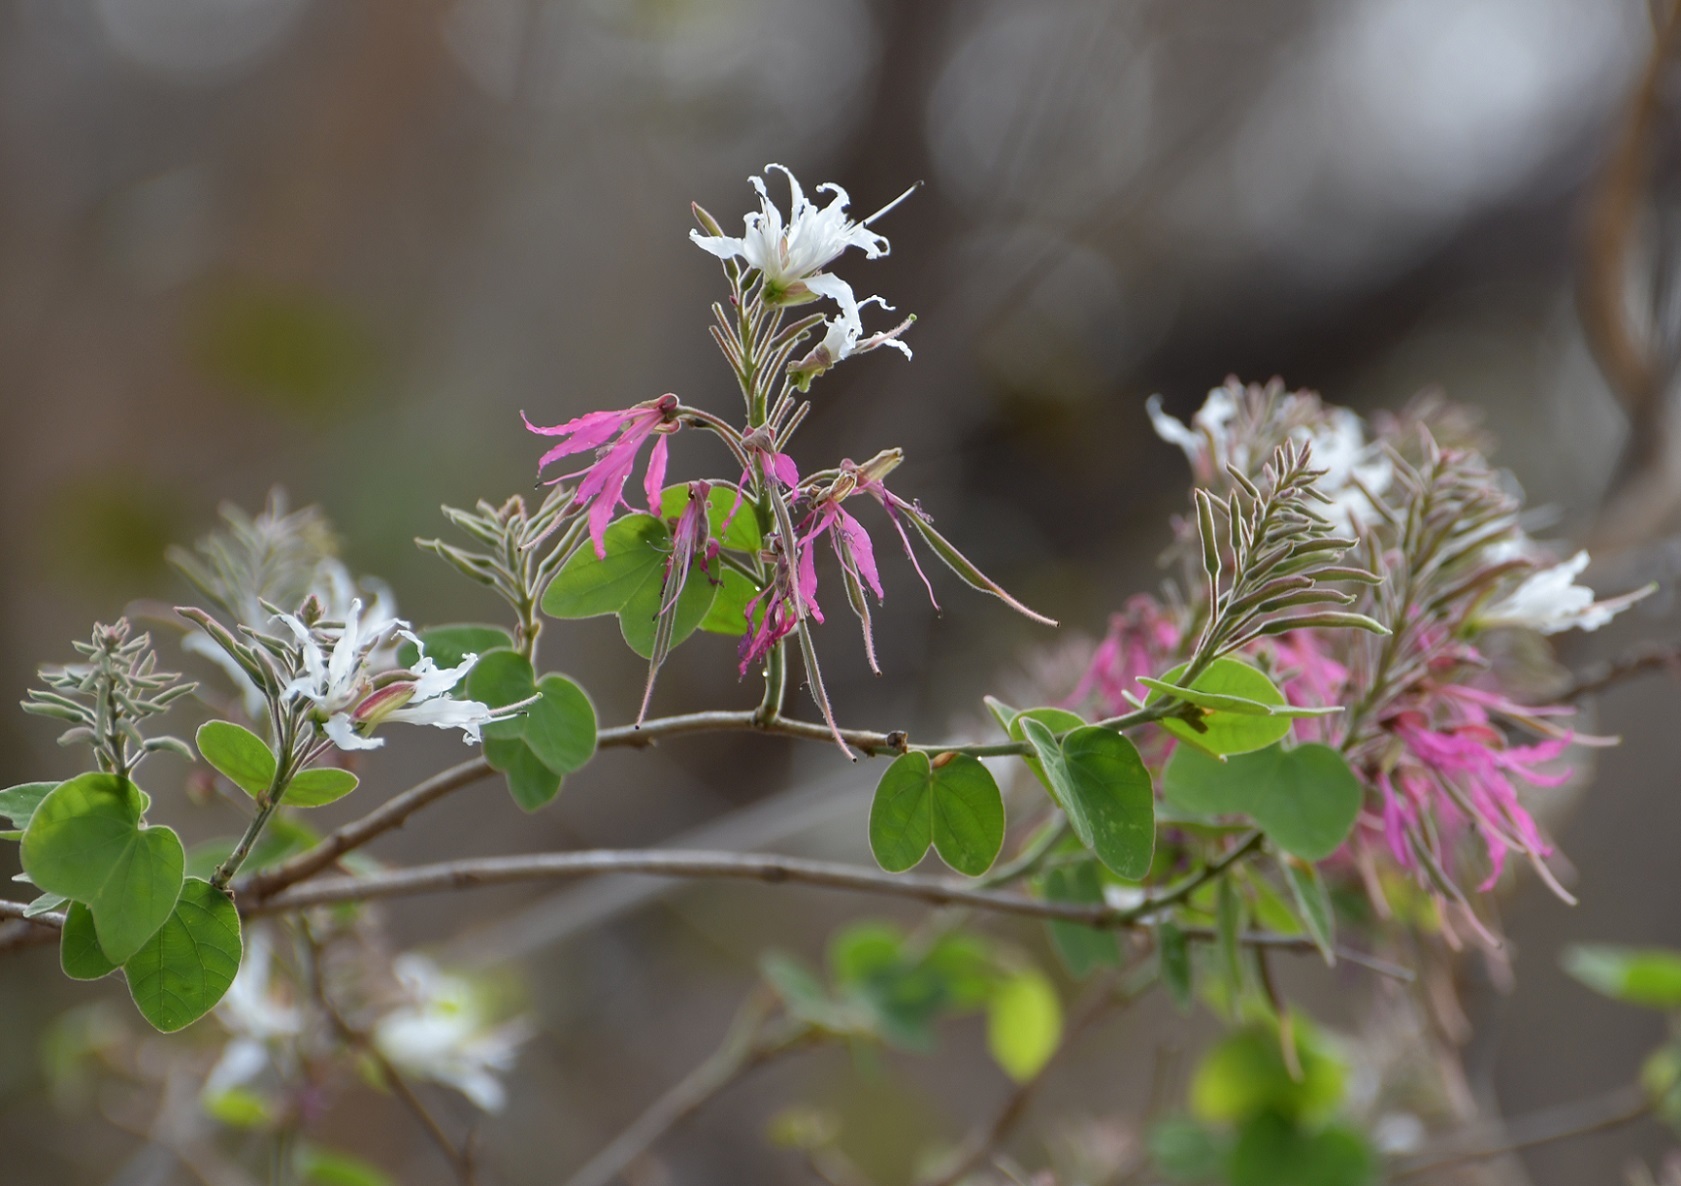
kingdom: Plantae
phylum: Tracheophyta
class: Magnoliopsida
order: Fabales
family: Fabaceae
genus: Bauhinia
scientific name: Bauhinia divaricata
